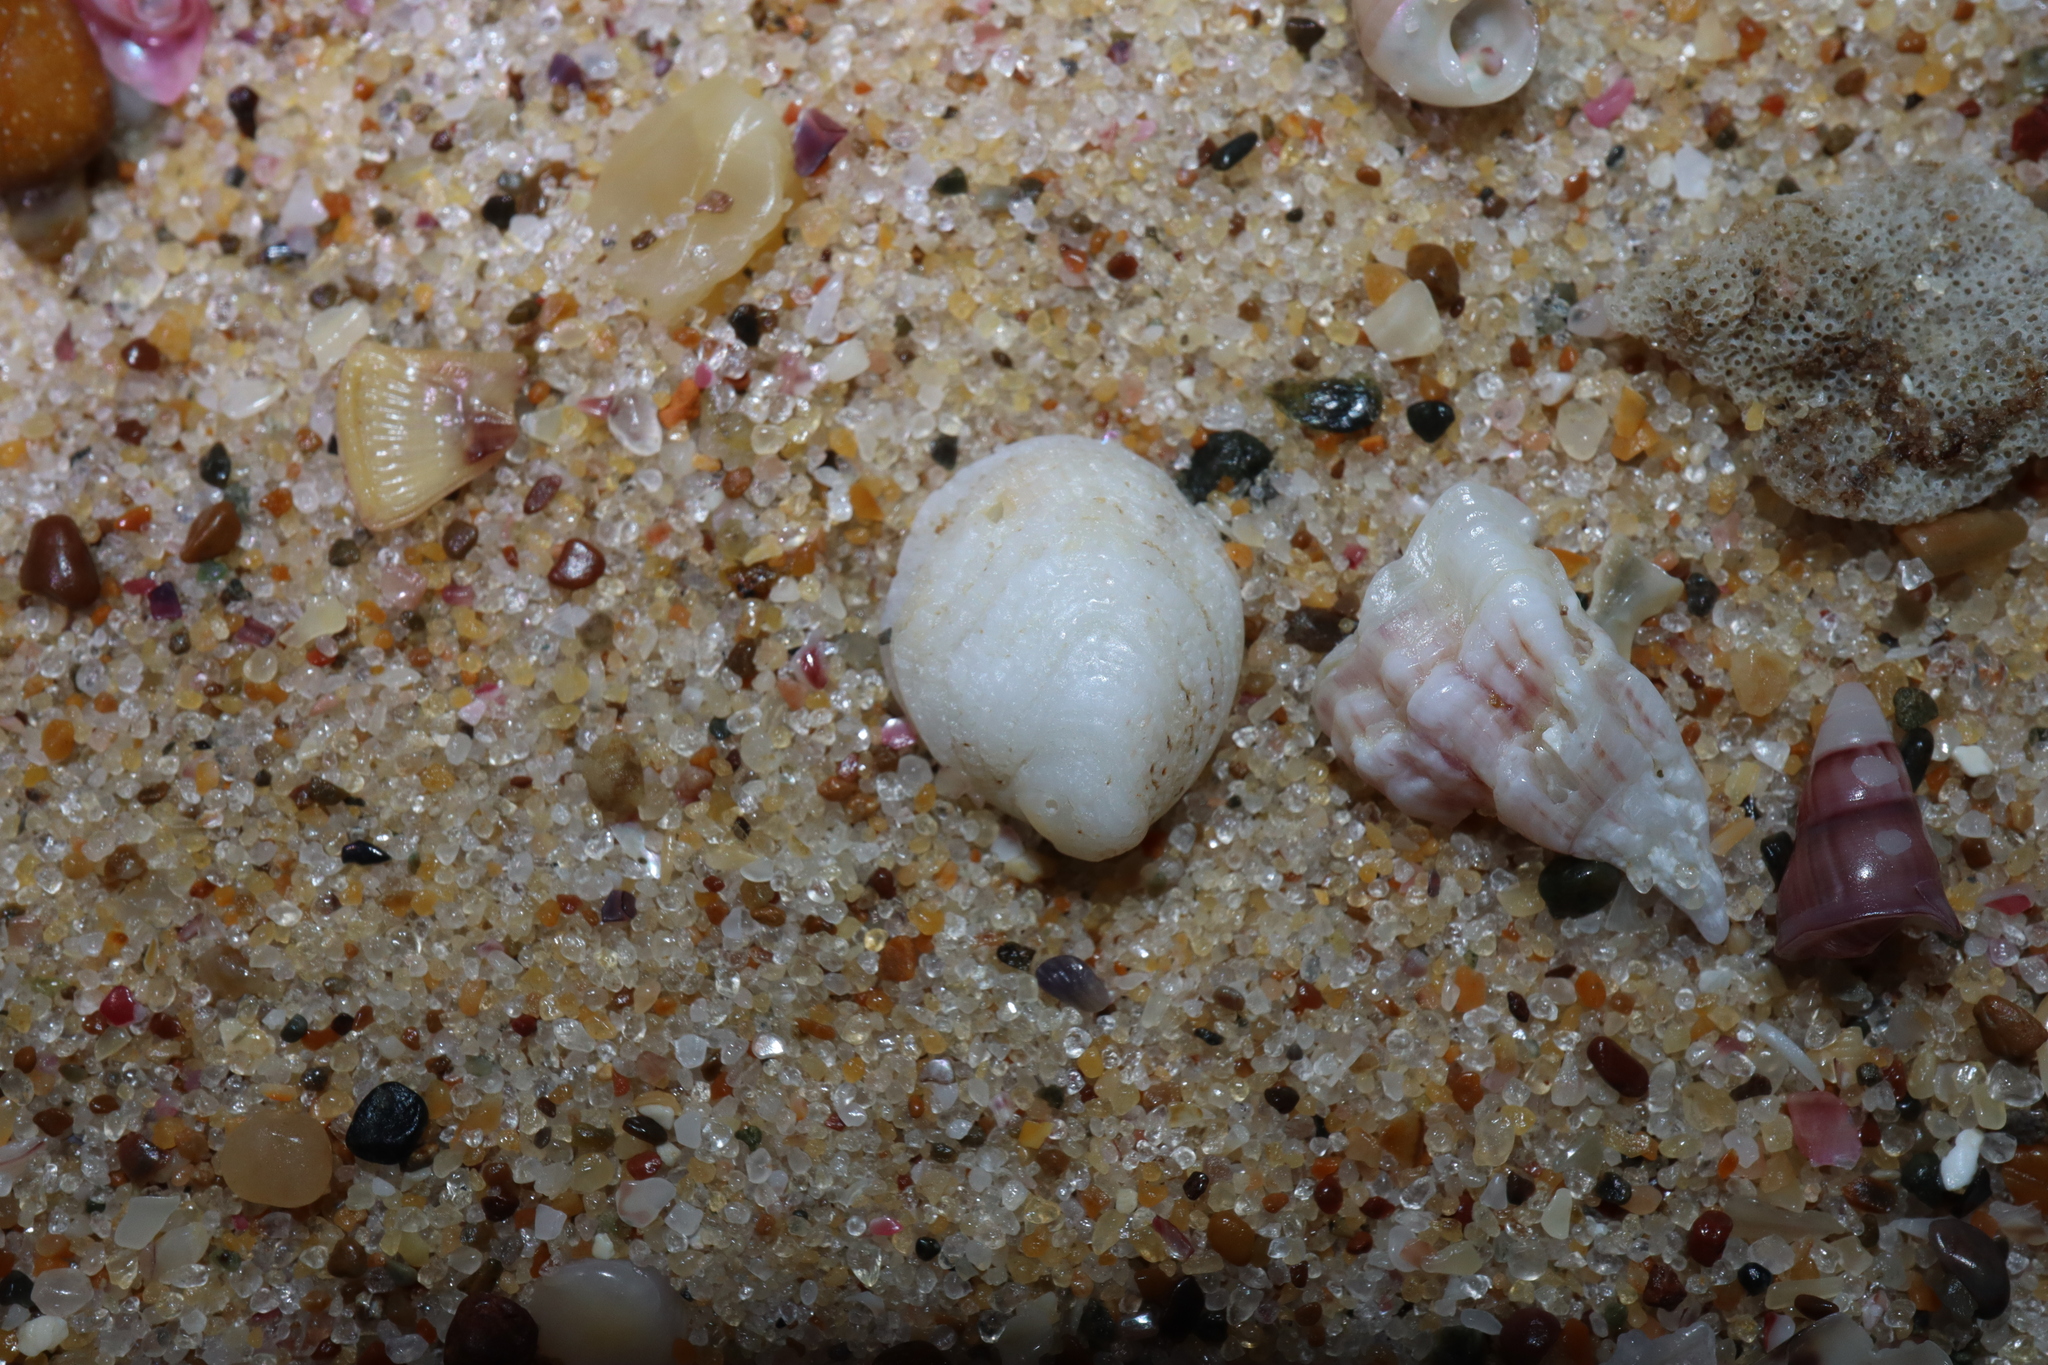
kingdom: Animalia
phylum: Mollusca
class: Gastropoda
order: Littorinimorpha
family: Hipponicidae
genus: Antisabia
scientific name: Antisabia foliacea
